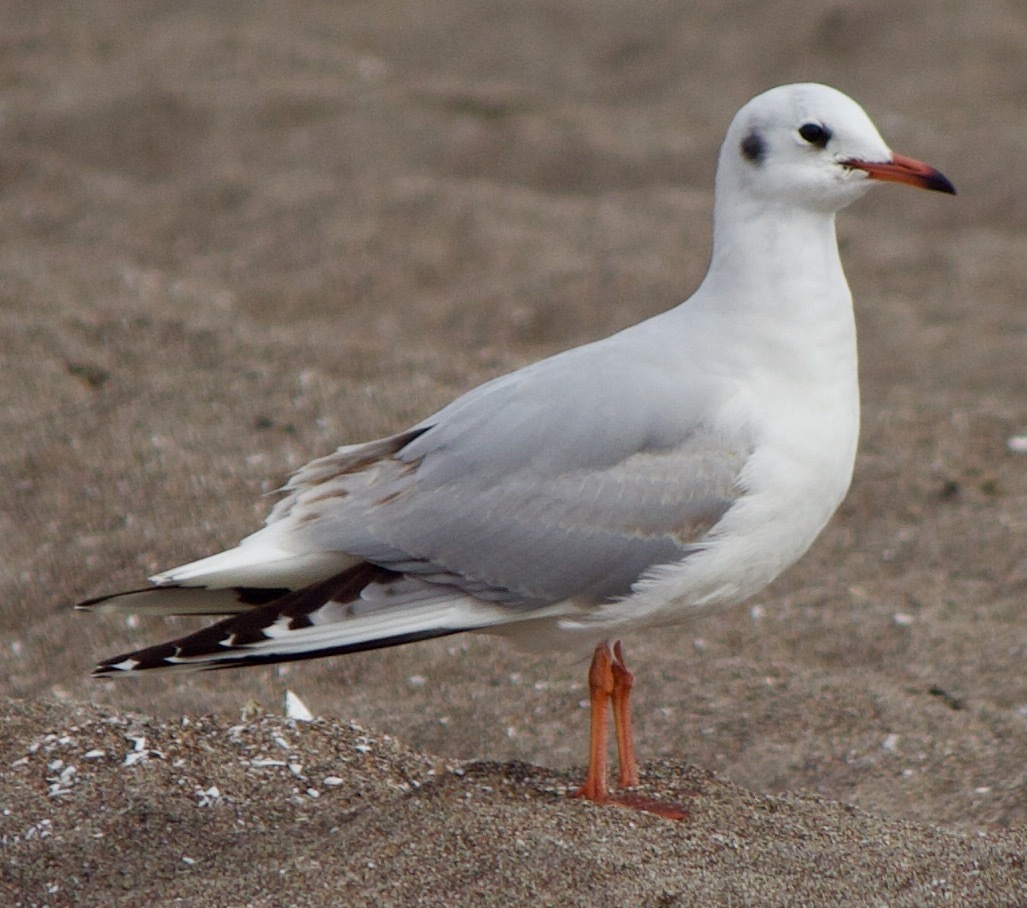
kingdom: Animalia
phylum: Chordata
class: Aves
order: Charadriiformes
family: Laridae
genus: Chroicocephalus
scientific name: Chroicocephalus maculipennis
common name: Brown-hooded gull
